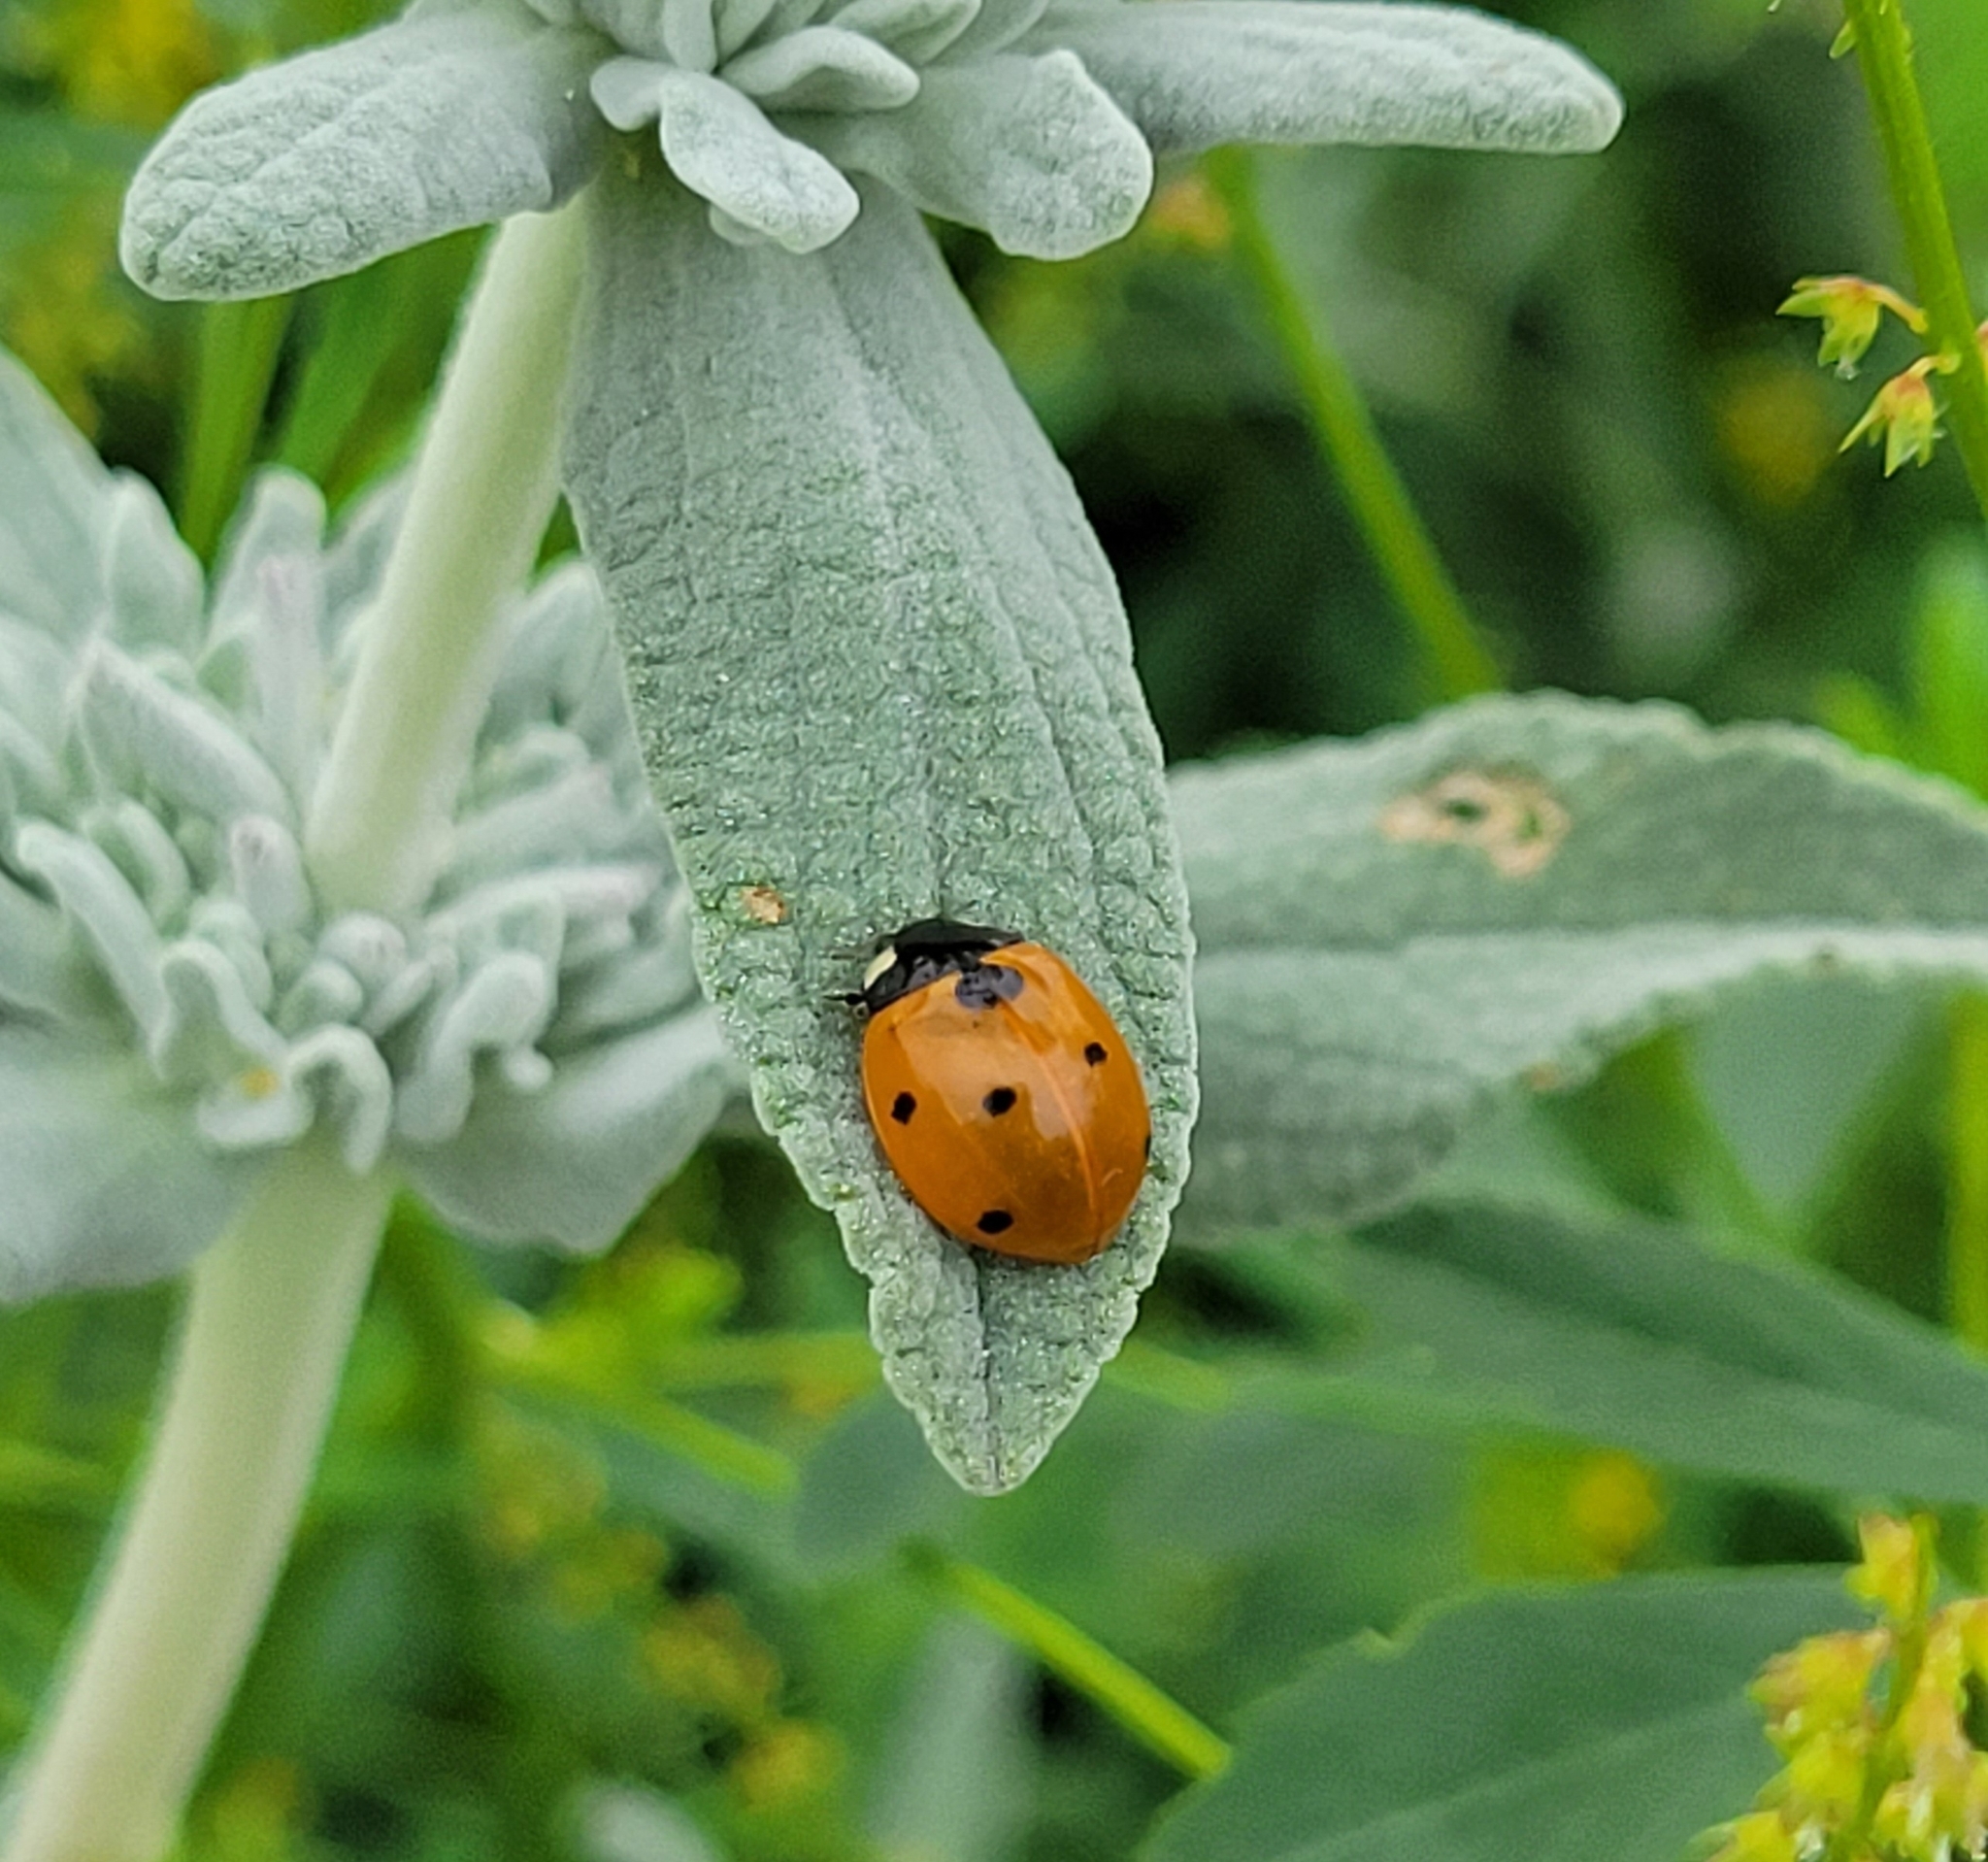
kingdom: Animalia
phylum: Arthropoda
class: Insecta
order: Coleoptera
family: Coccinellidae
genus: Coccinella
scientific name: Coccinella septempunctata
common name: Sevenspotted lady beetle
